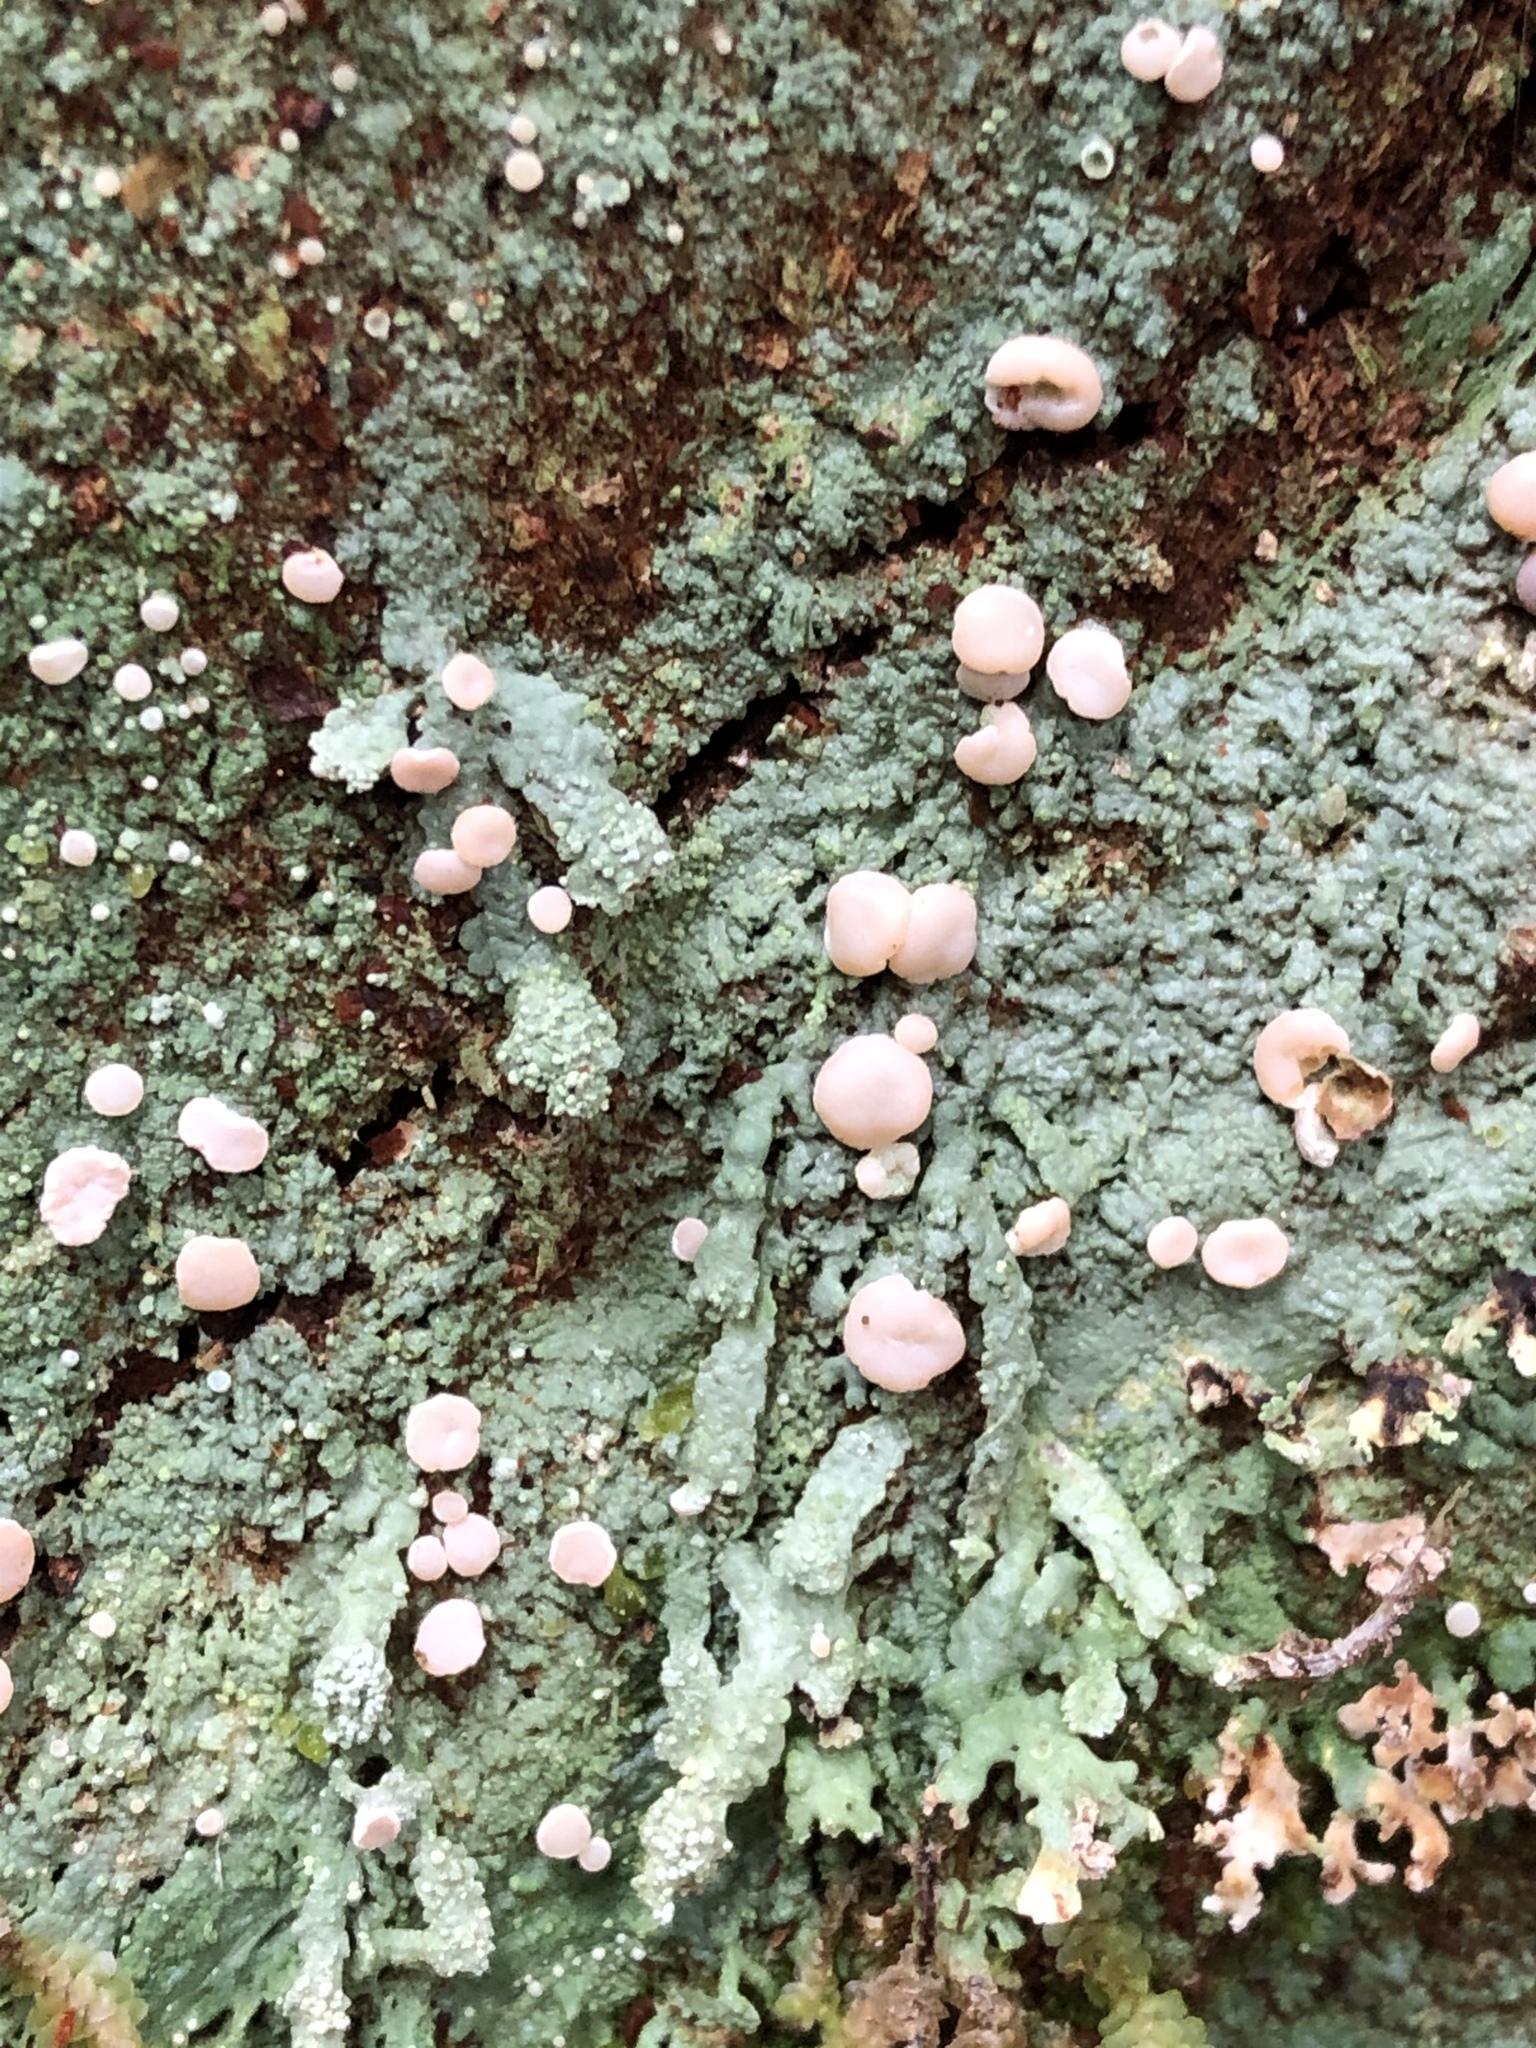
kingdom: Fungi
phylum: Ascomycota
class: Lecanoromycetes
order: Pertusariales
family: Icmadophilaceae
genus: Icmadophila
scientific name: Icmadophila ericetorum
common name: Candy lichen
